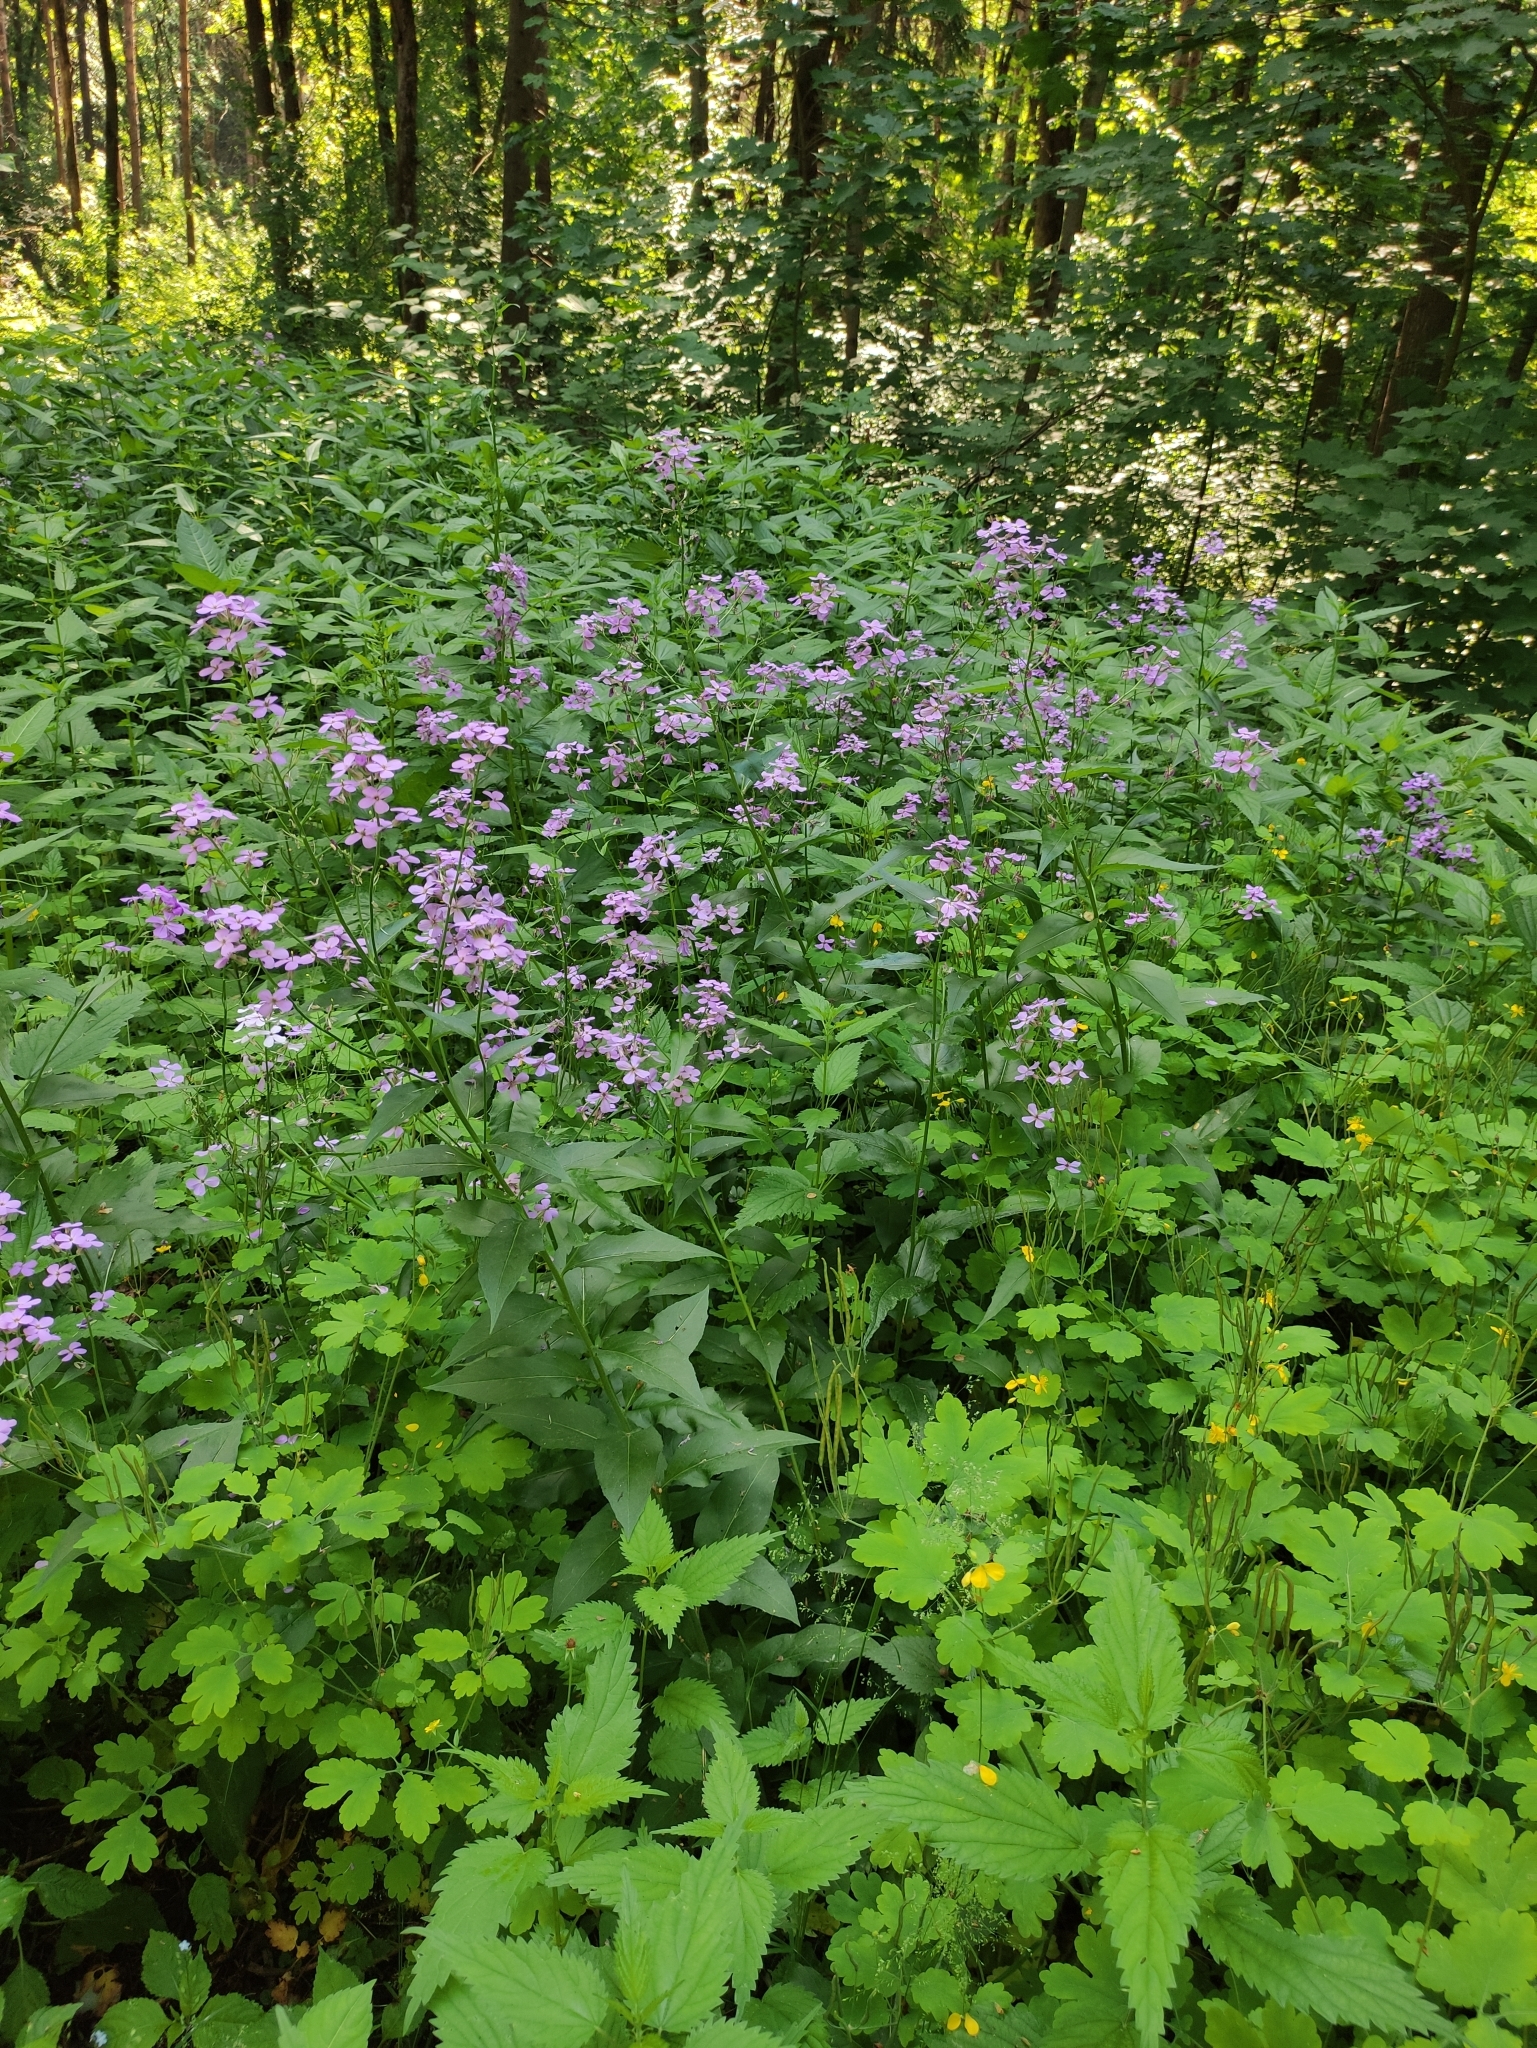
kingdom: Plantae
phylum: Tracheophyta
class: Magnoliopsida
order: Brassicales
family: Brassicaceae
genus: Hesperis
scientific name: Hesperis matronalis
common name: Dame's-violet
